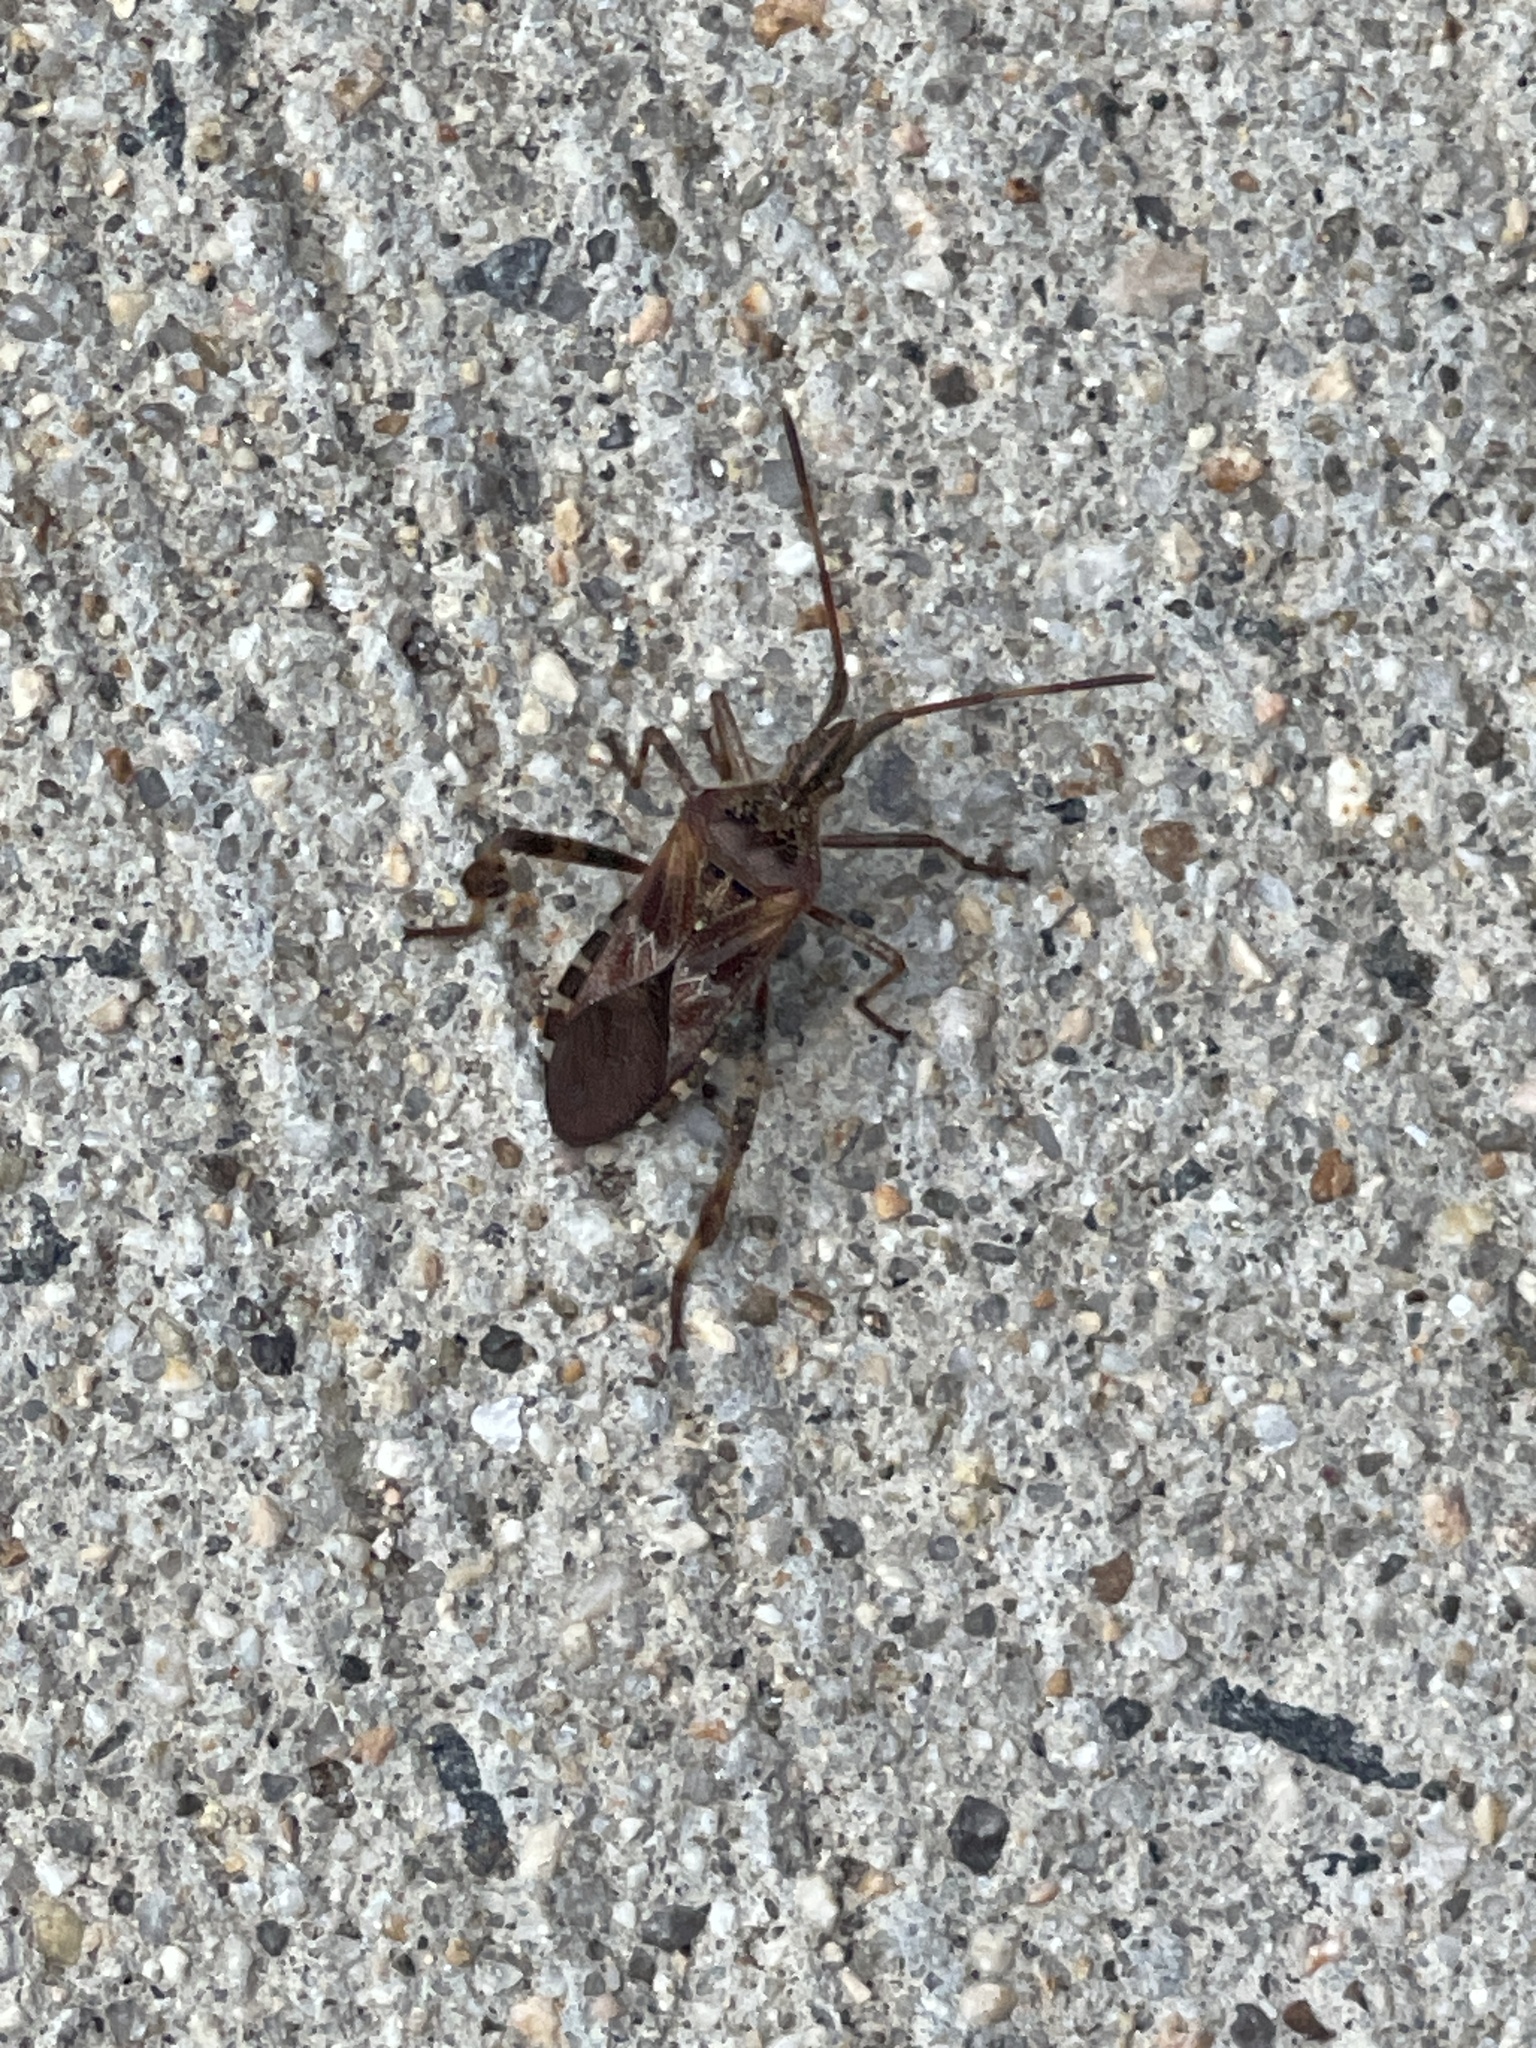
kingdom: Animalia
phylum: Arthropoda
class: Insecta
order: Hemiptera
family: Coreidae
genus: Leptoglossus
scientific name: Leptoglossus occidentalis
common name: Western conifer-seed bug
